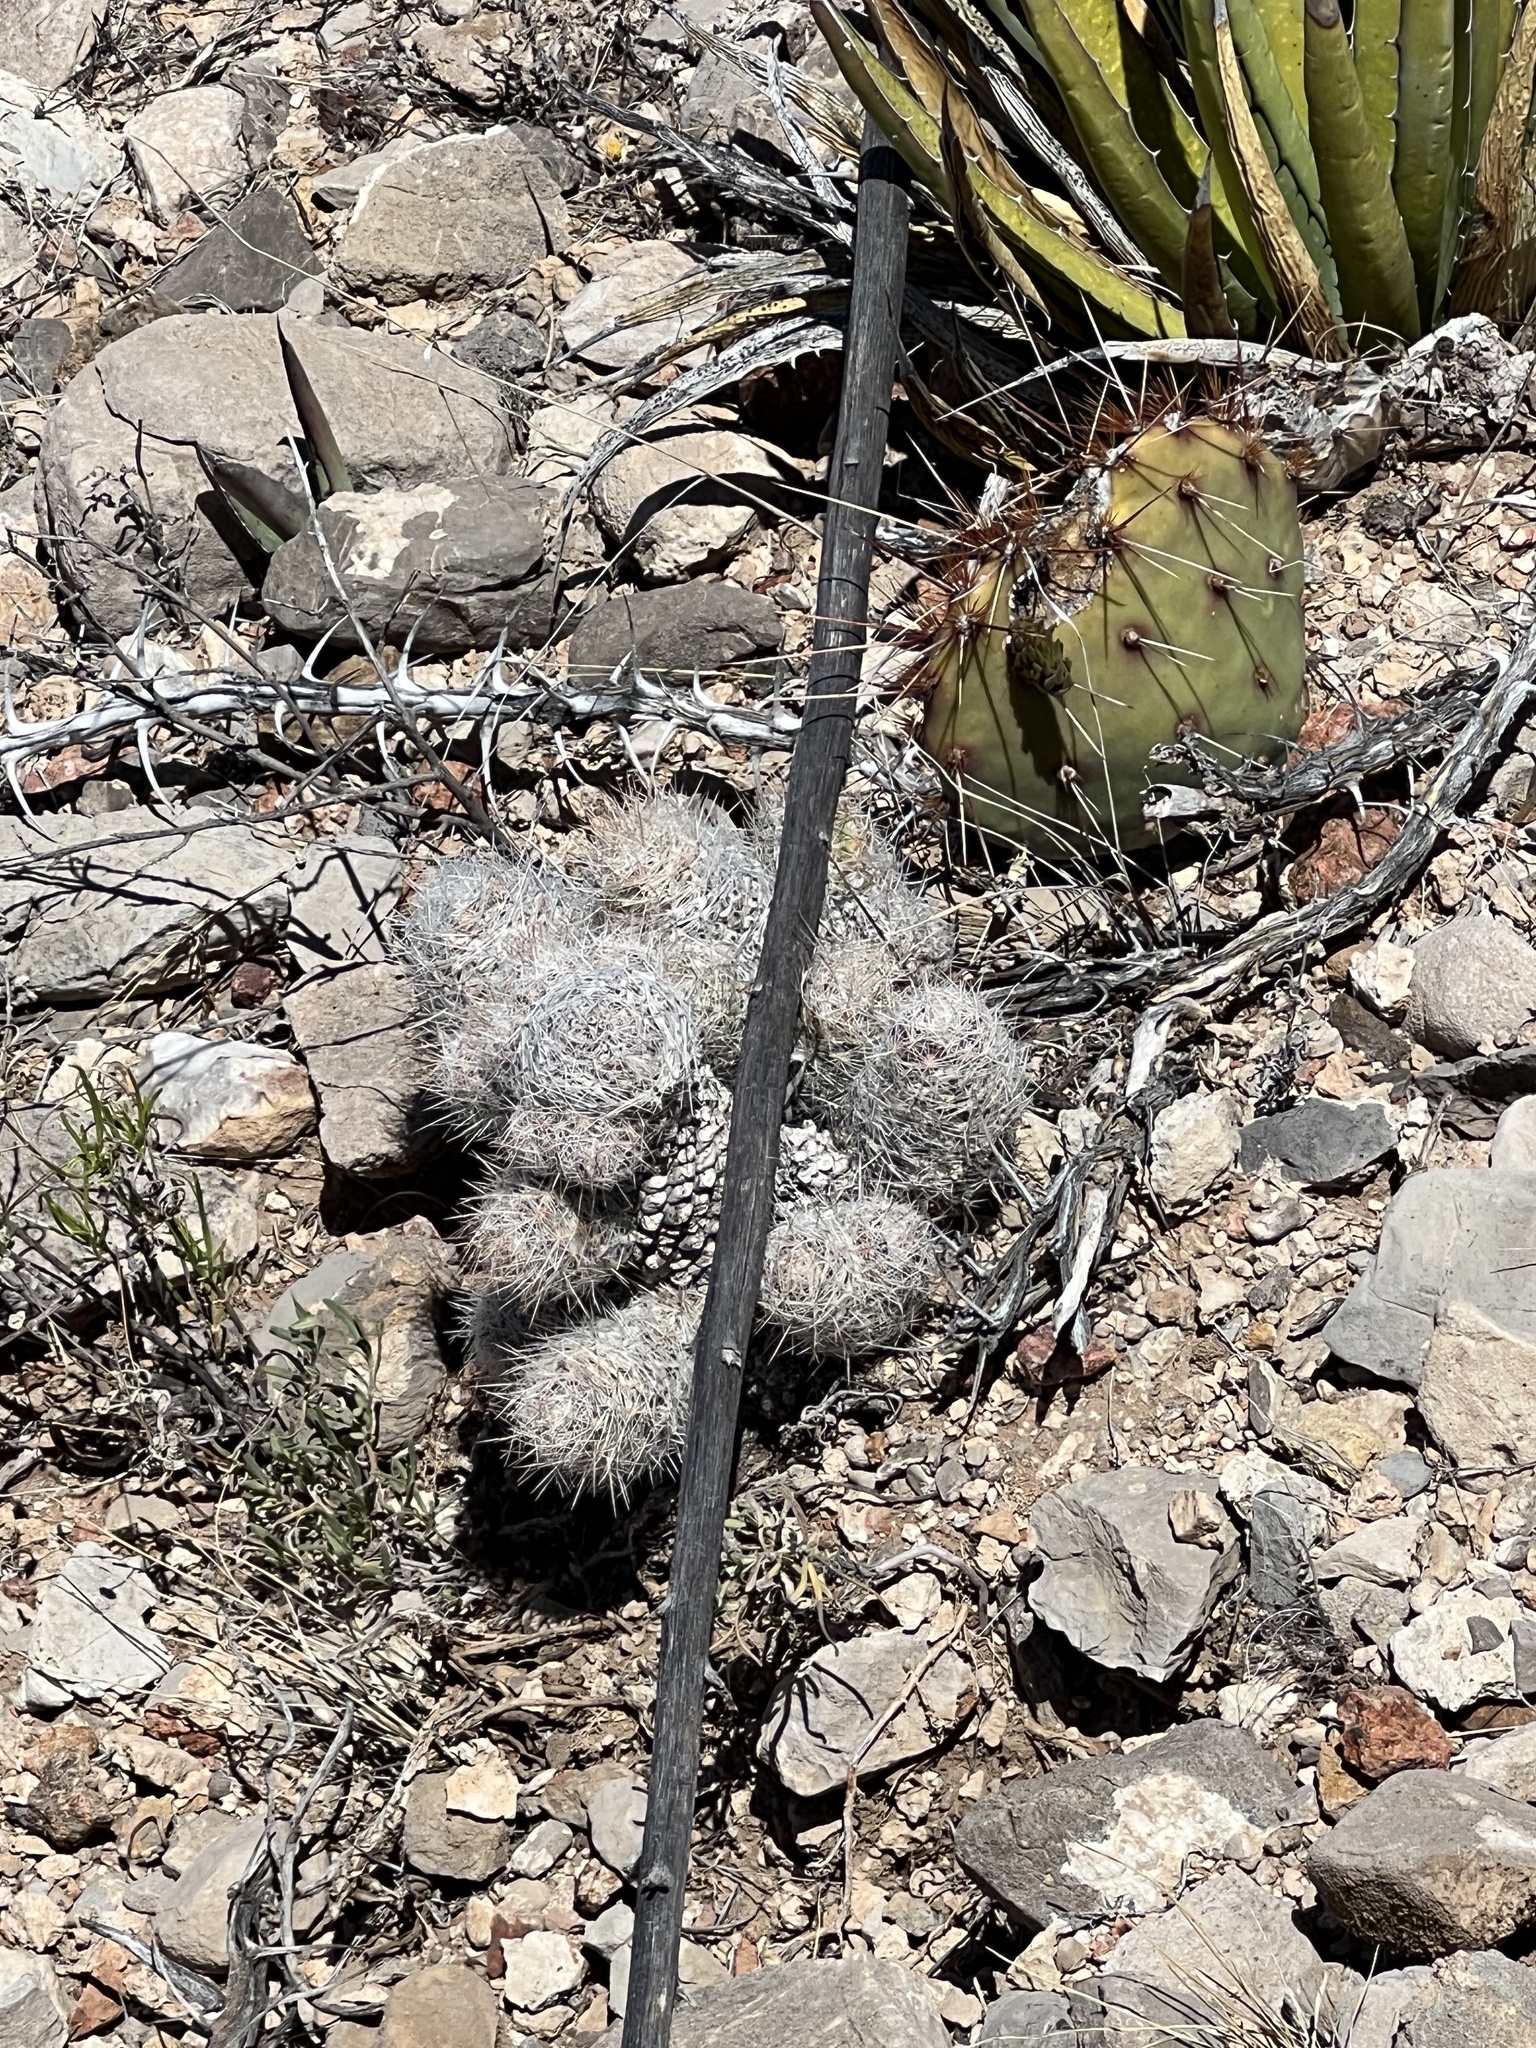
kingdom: Plantae
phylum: Tracheophyta
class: Magnoliopsida
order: Caryophyllales
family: Cactaceae
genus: Pelecyphora
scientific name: Pelecyphora tuberculosa
